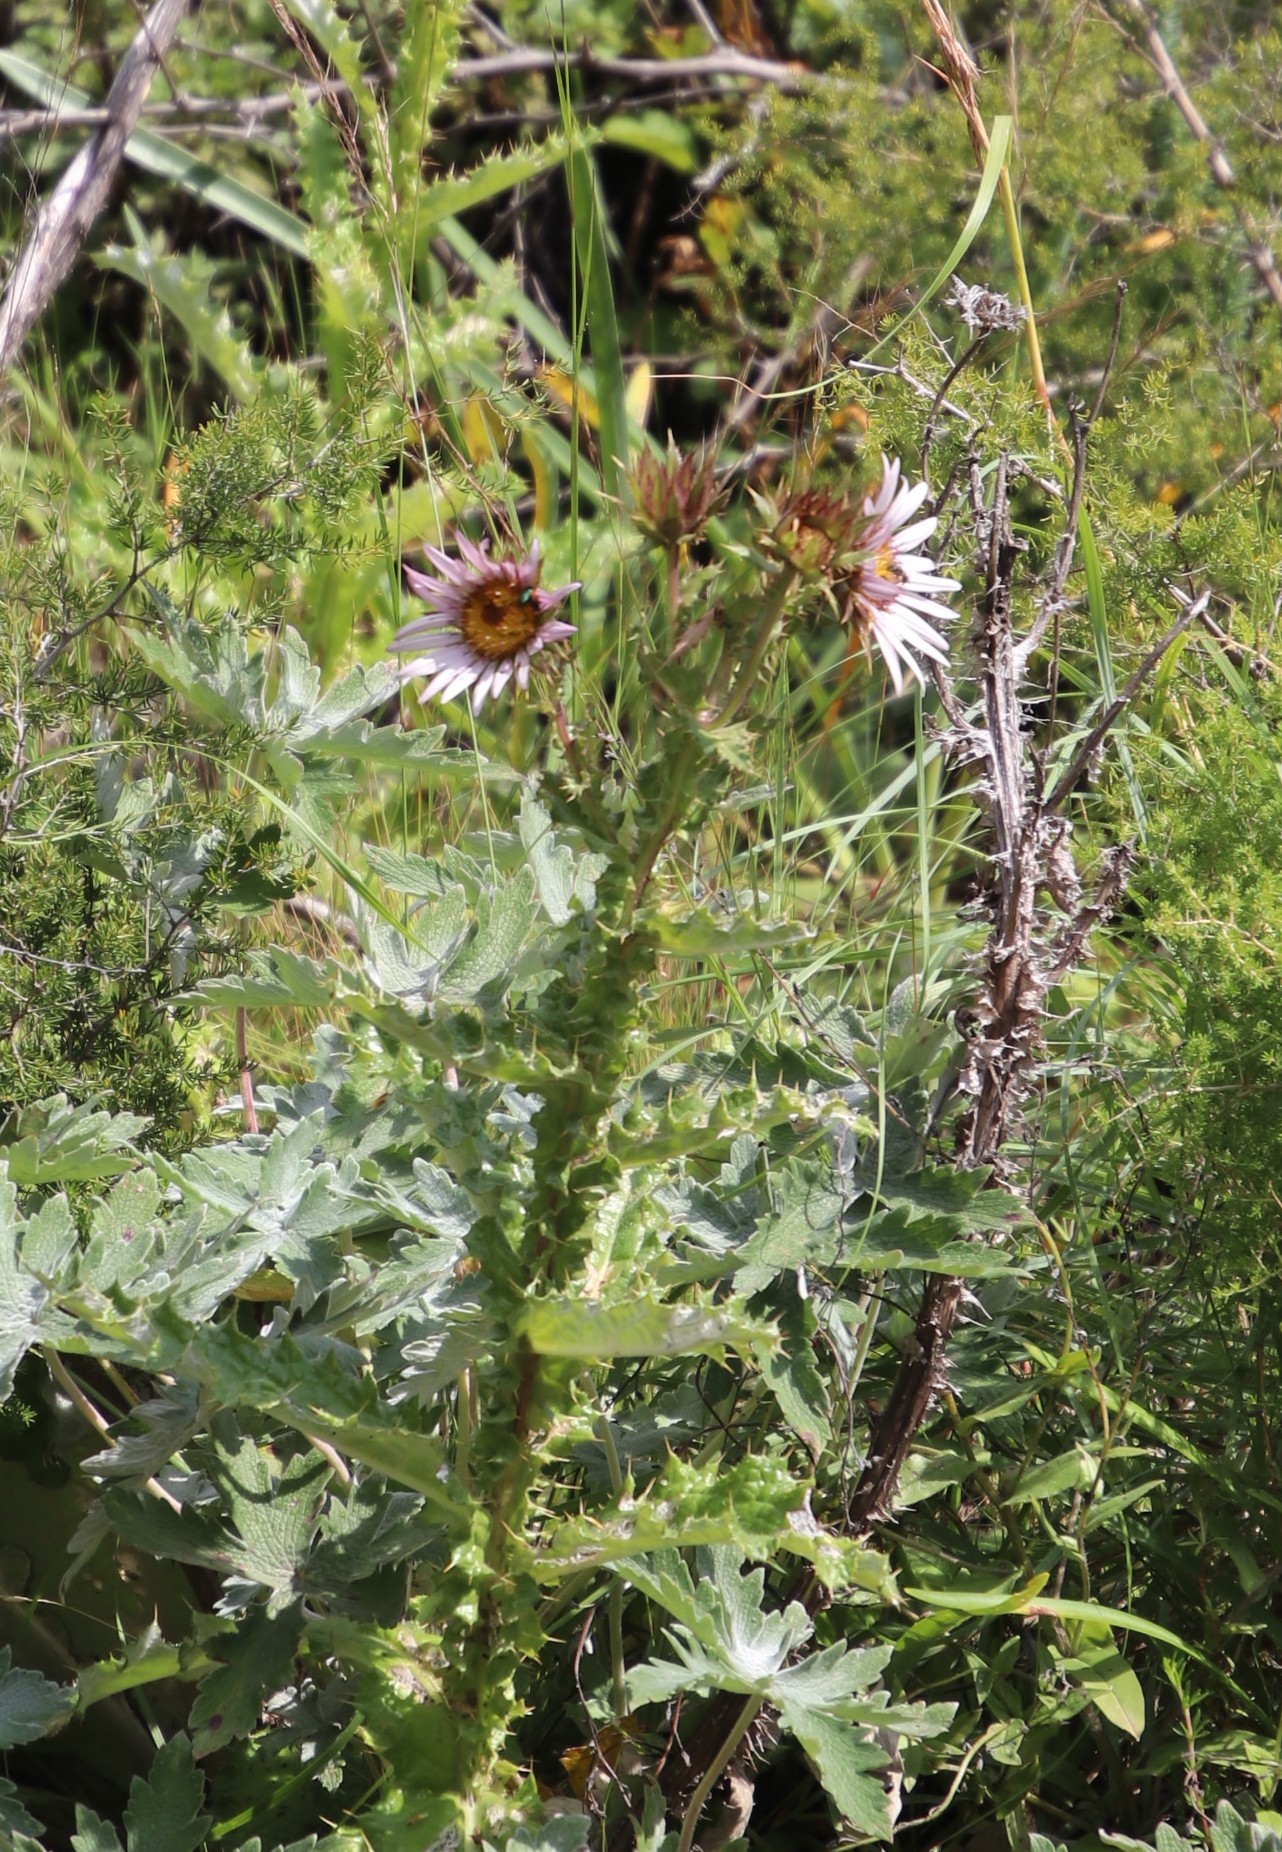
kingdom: Plantae
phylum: Tracheophyta
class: Magnoliopsida
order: Asterales
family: Asteraceae
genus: Berkheya
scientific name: Berkheya purpurea
